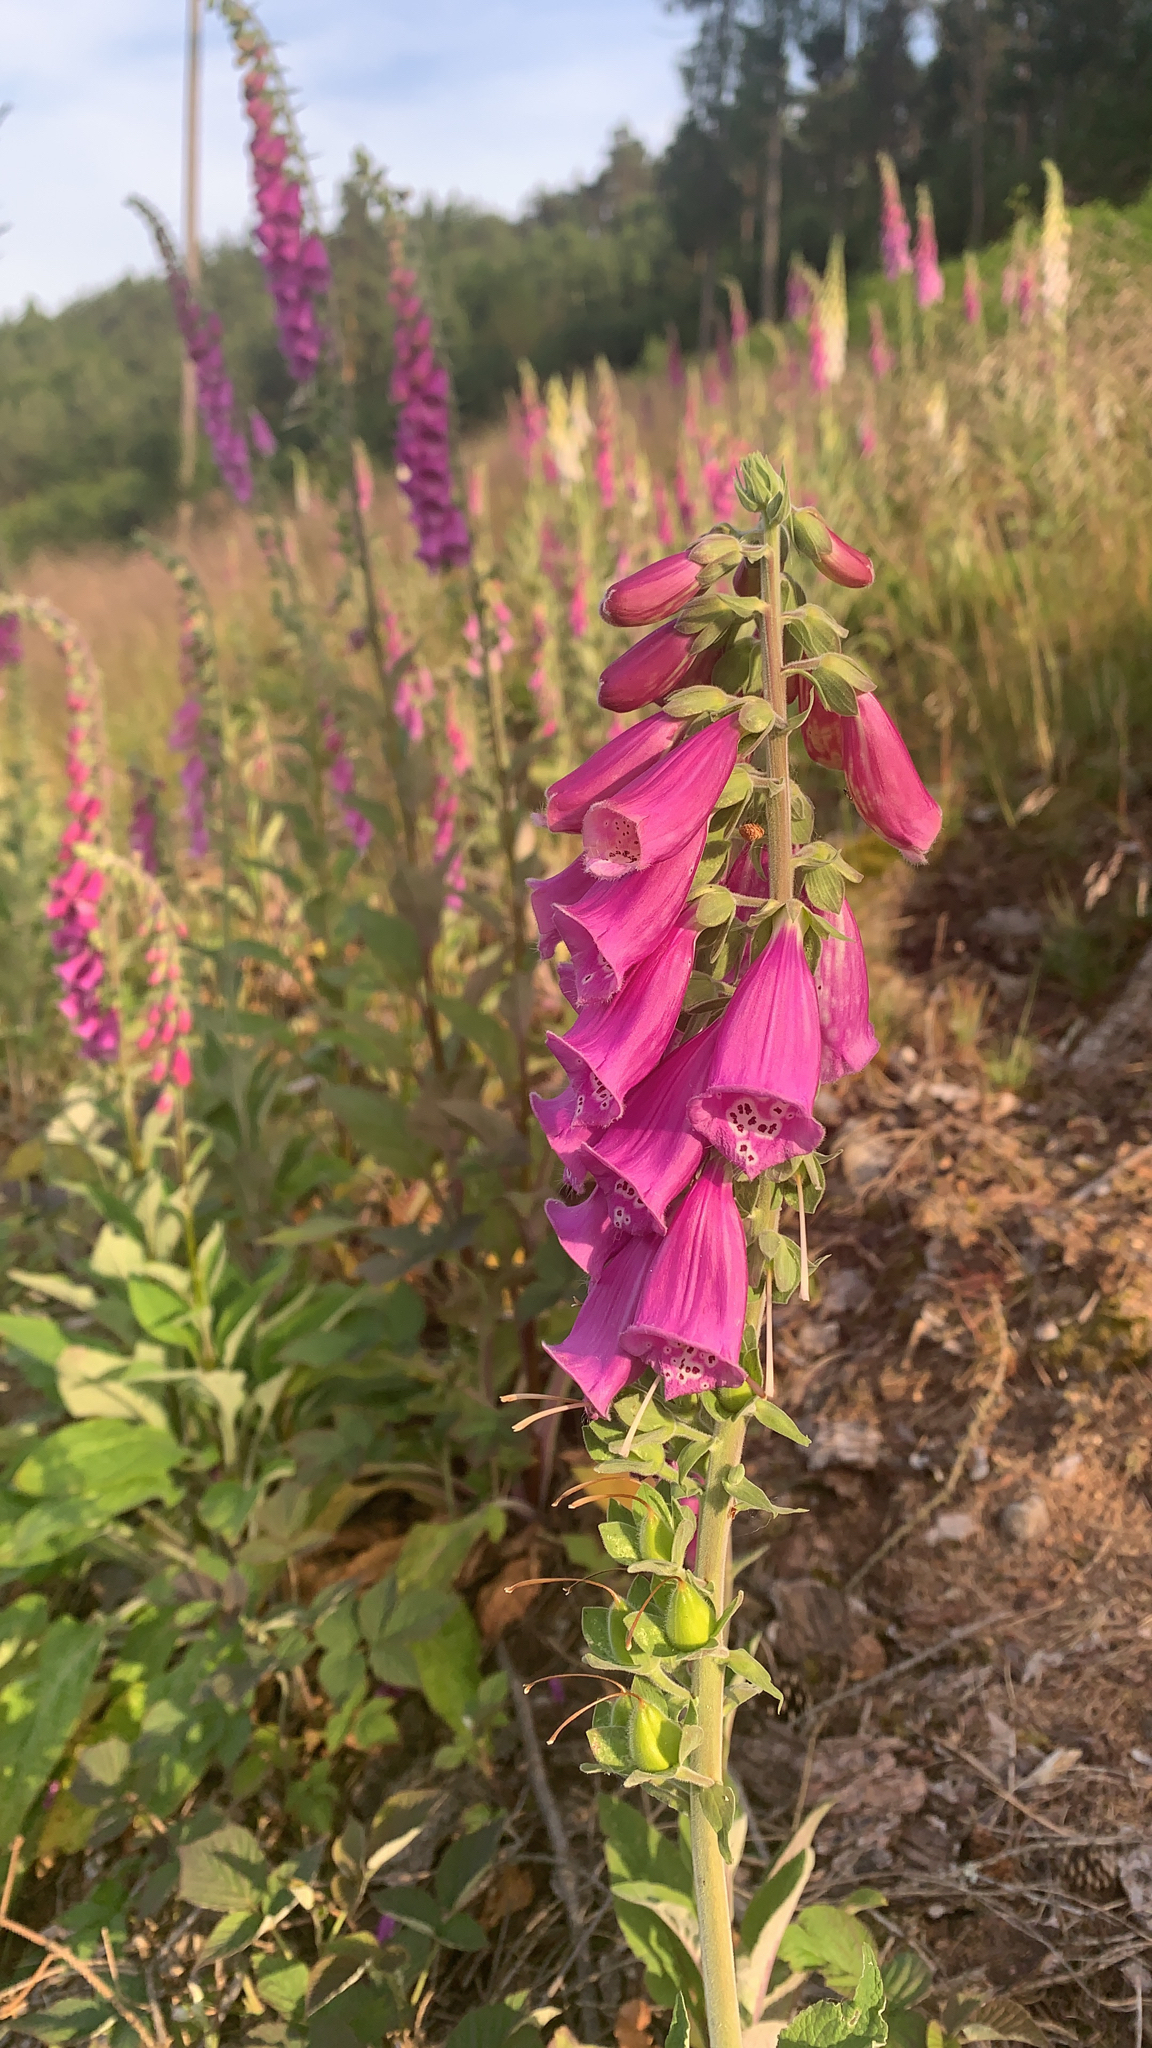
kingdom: Plantae
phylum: Tracheophyta
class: Magnoliopsida
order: Lamiales
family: Plantaginaceae
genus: Digitalis
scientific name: Digitalis purpurea
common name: Foxglove
